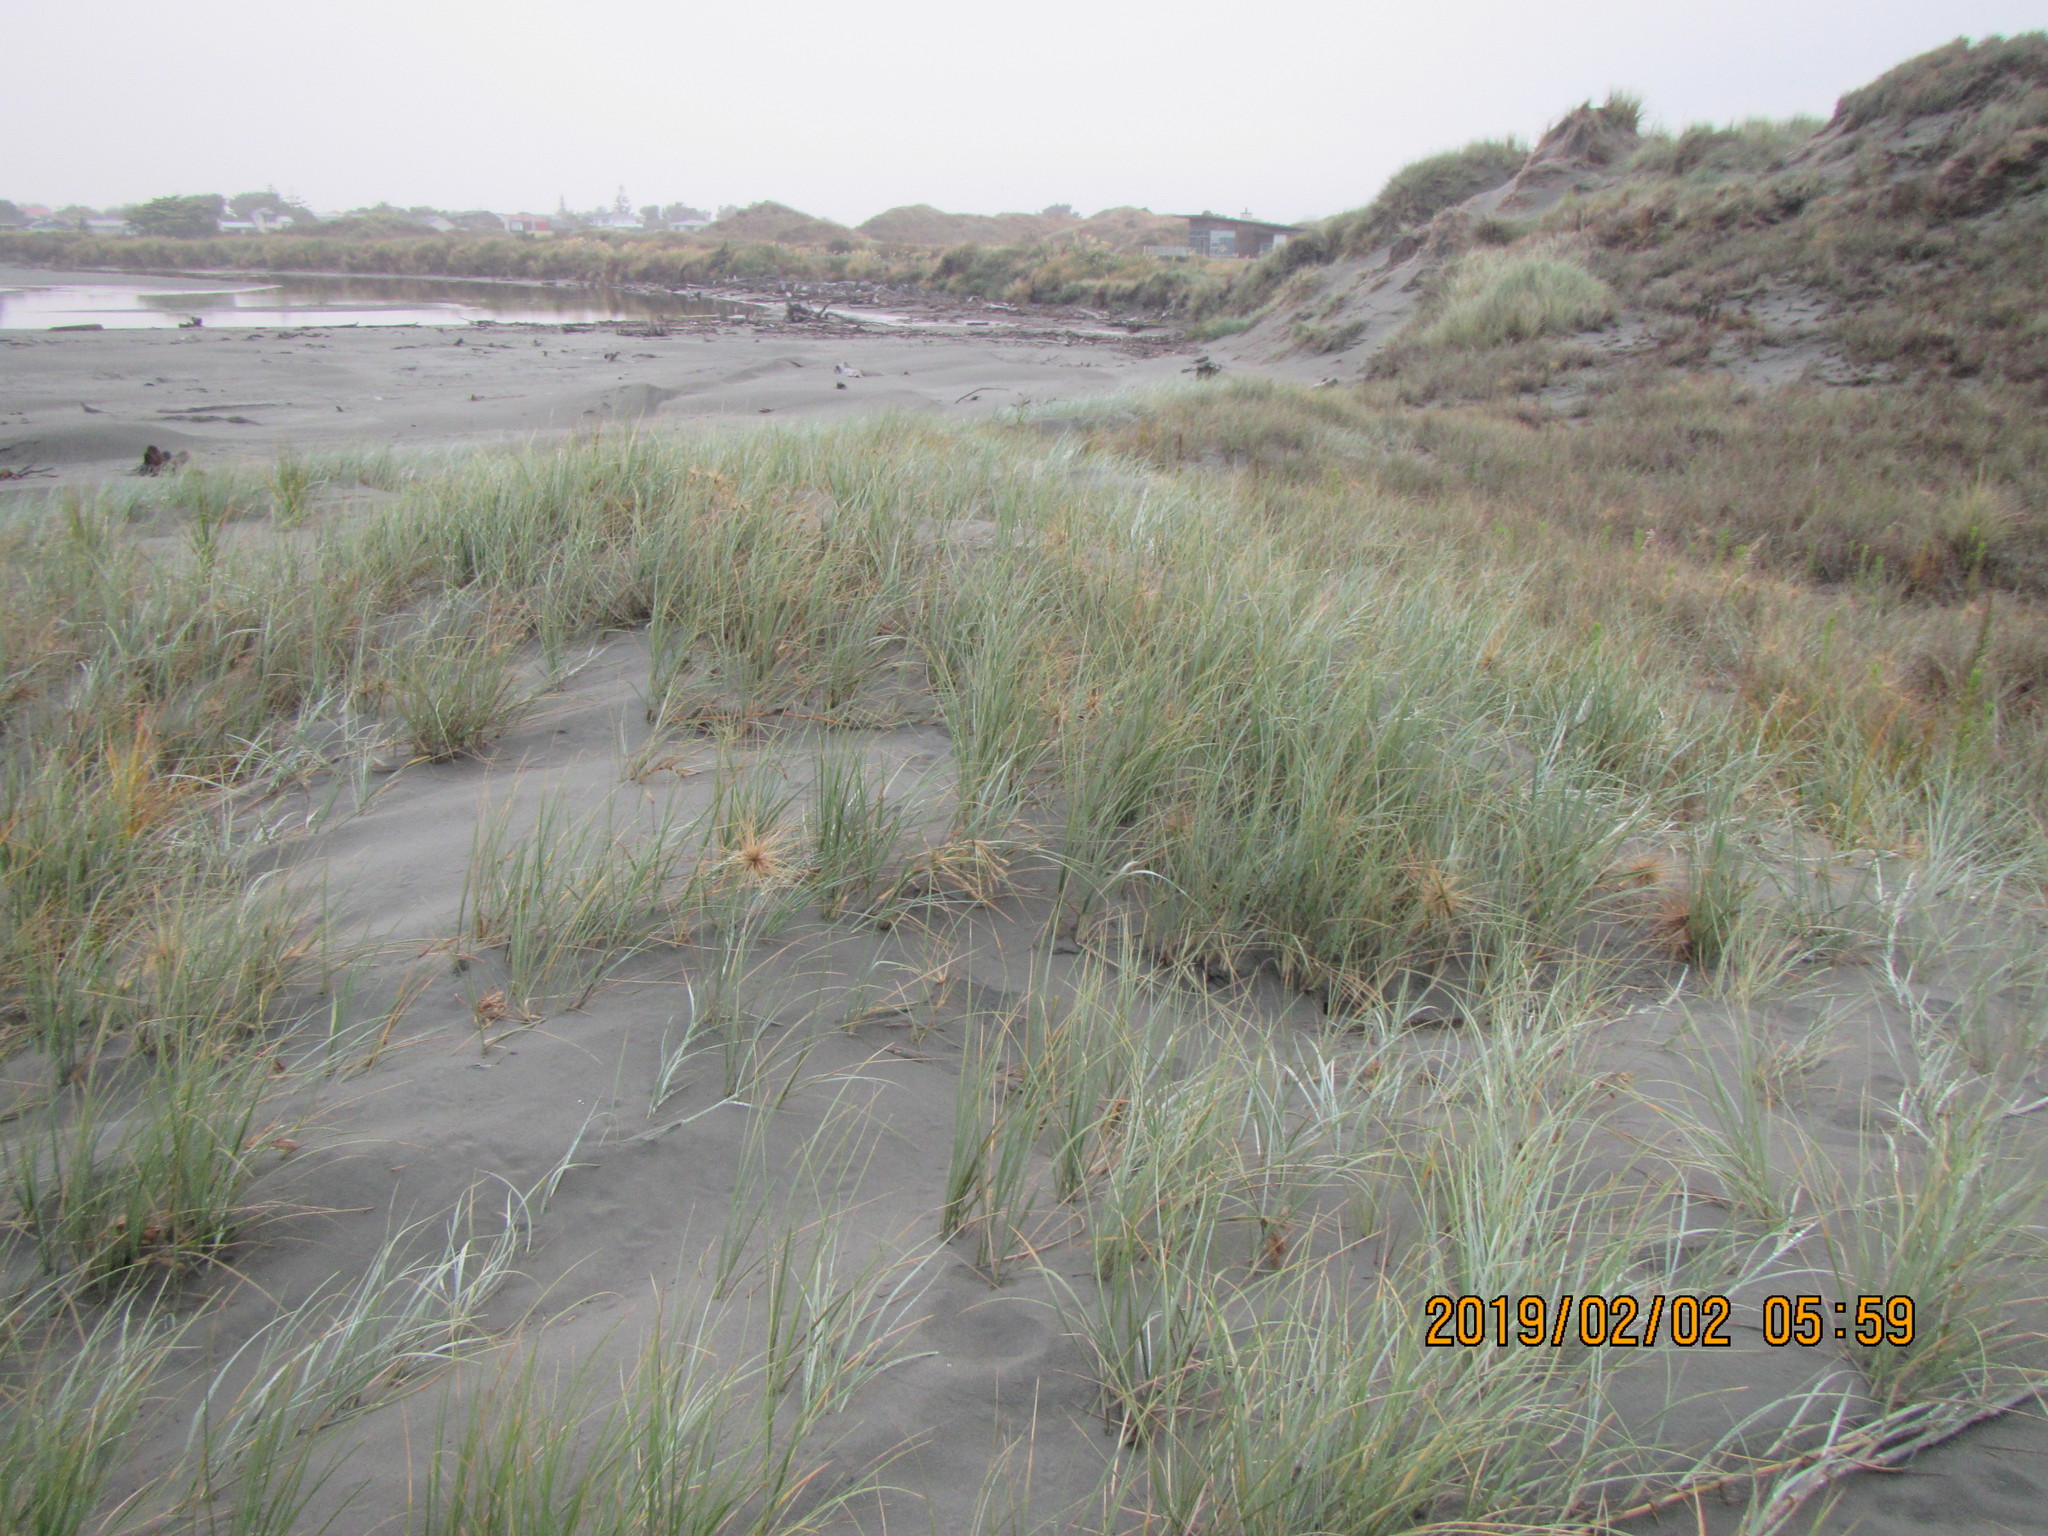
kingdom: Plantae
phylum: Tracheophyta
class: Liliopsida
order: Poales
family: Poaceae
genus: Spinifex
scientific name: Spinifex sericeus
